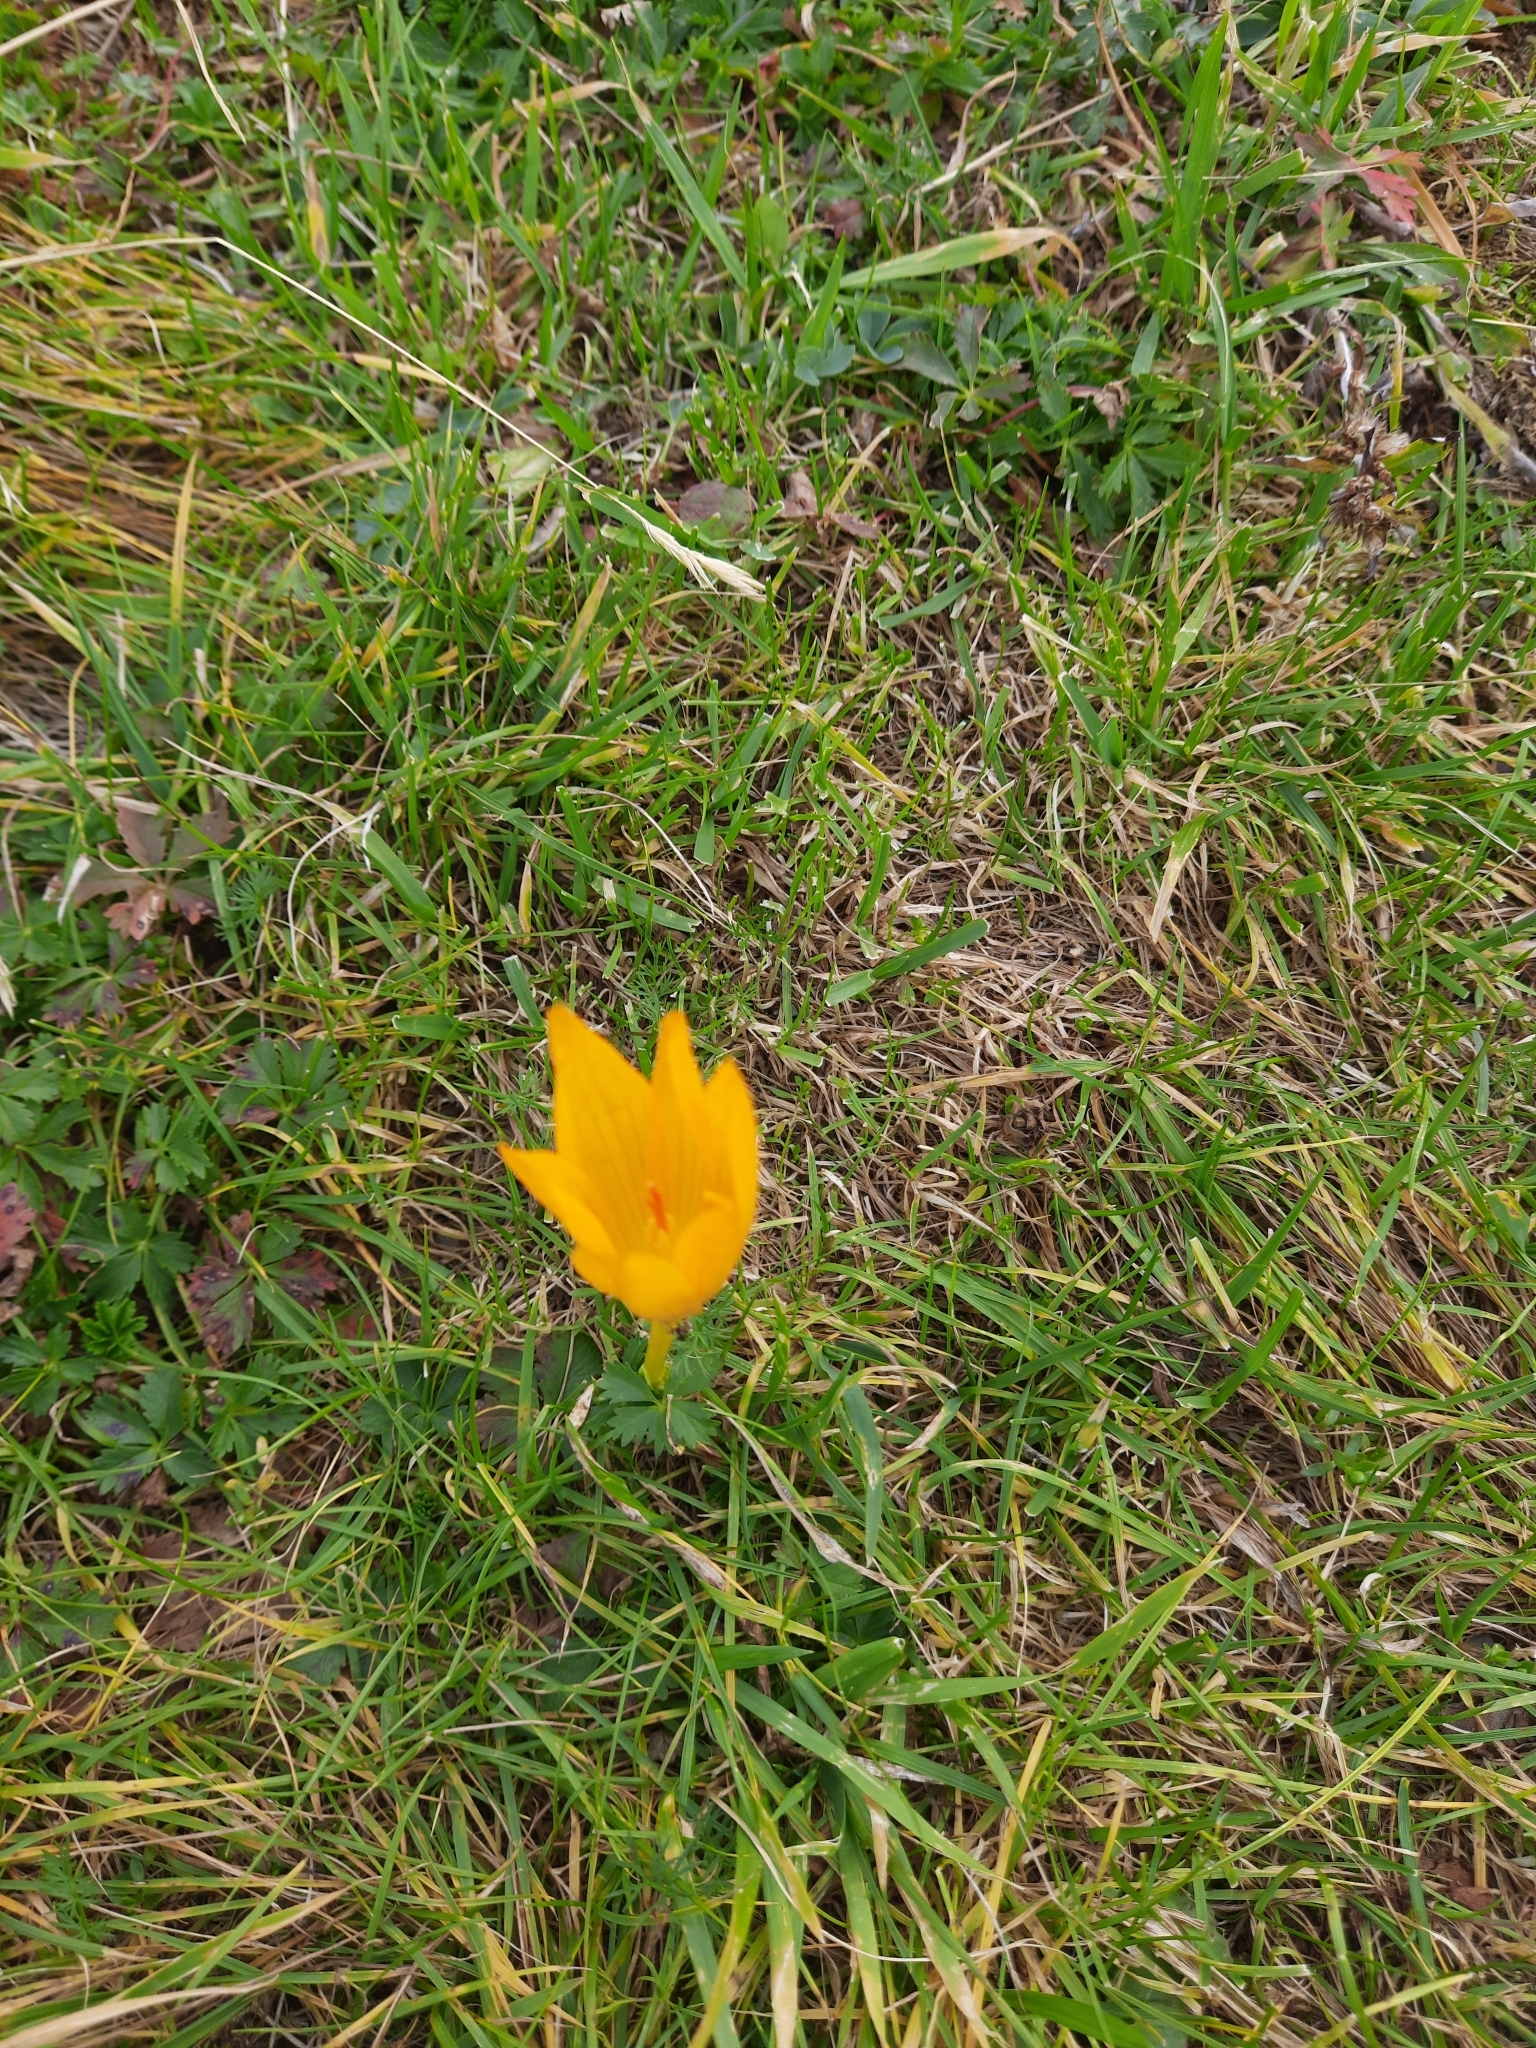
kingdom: Plantae
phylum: Tracheophyta
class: Liliopsida
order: Asparagales
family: Iridaceae
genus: Crocus
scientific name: Crocus scharojanii
